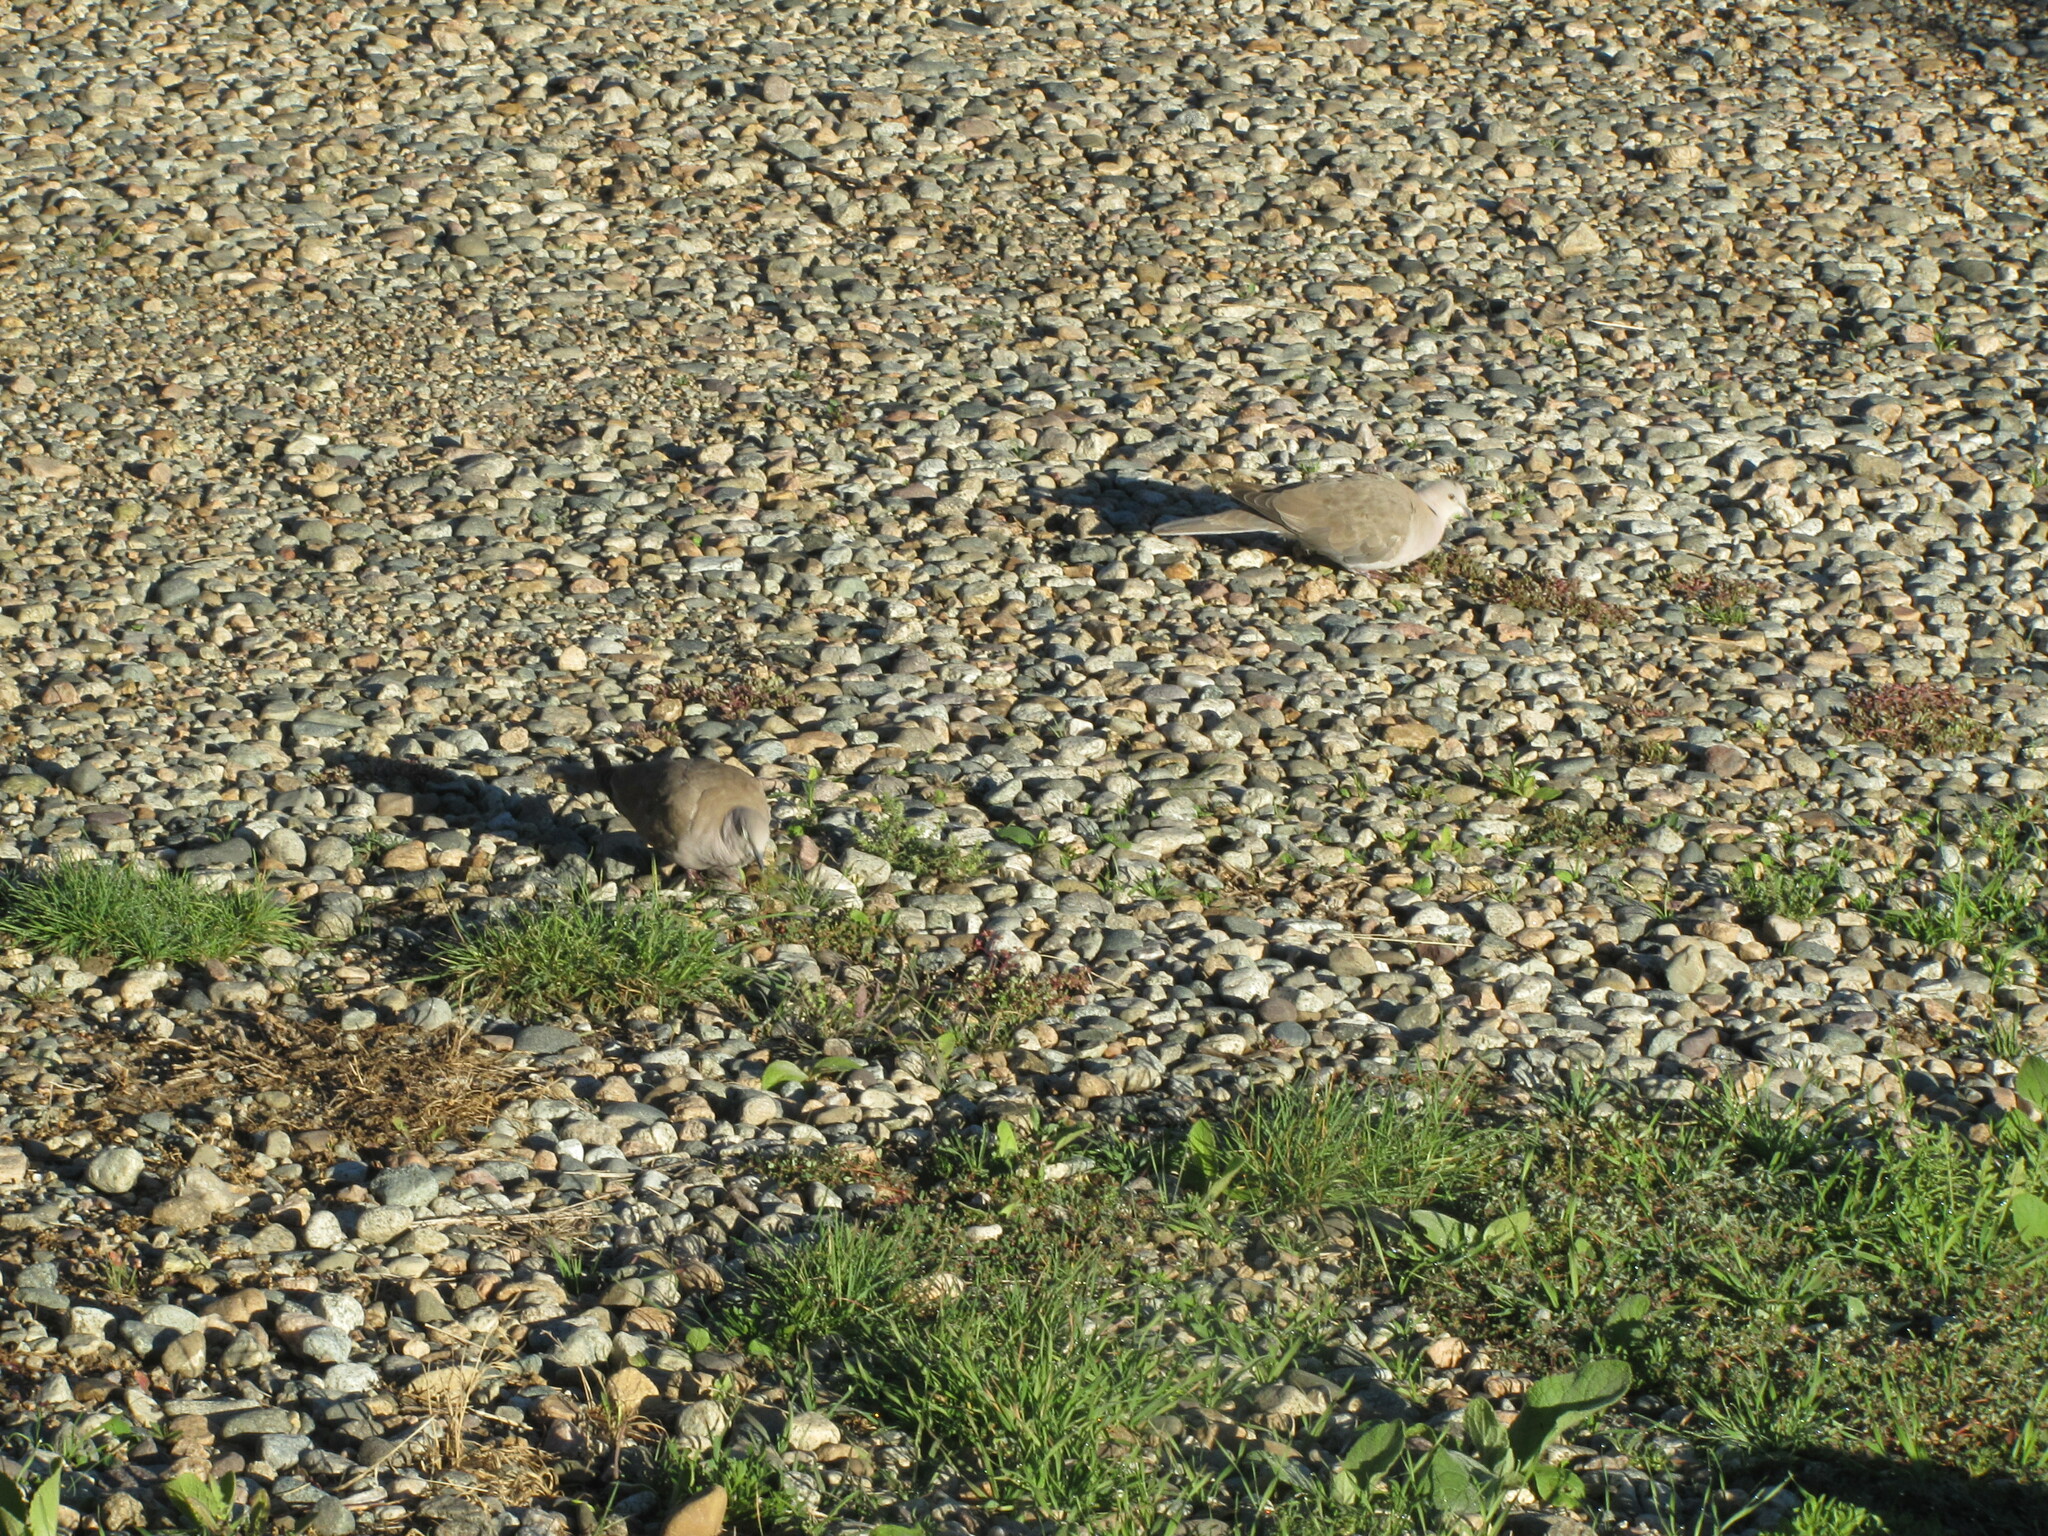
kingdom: Animalia
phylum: Chordata
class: Aves
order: Columbiformes
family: Columbidae
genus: Streptopelia
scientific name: Streptopelia decaocto
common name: Eurasian collared dove
